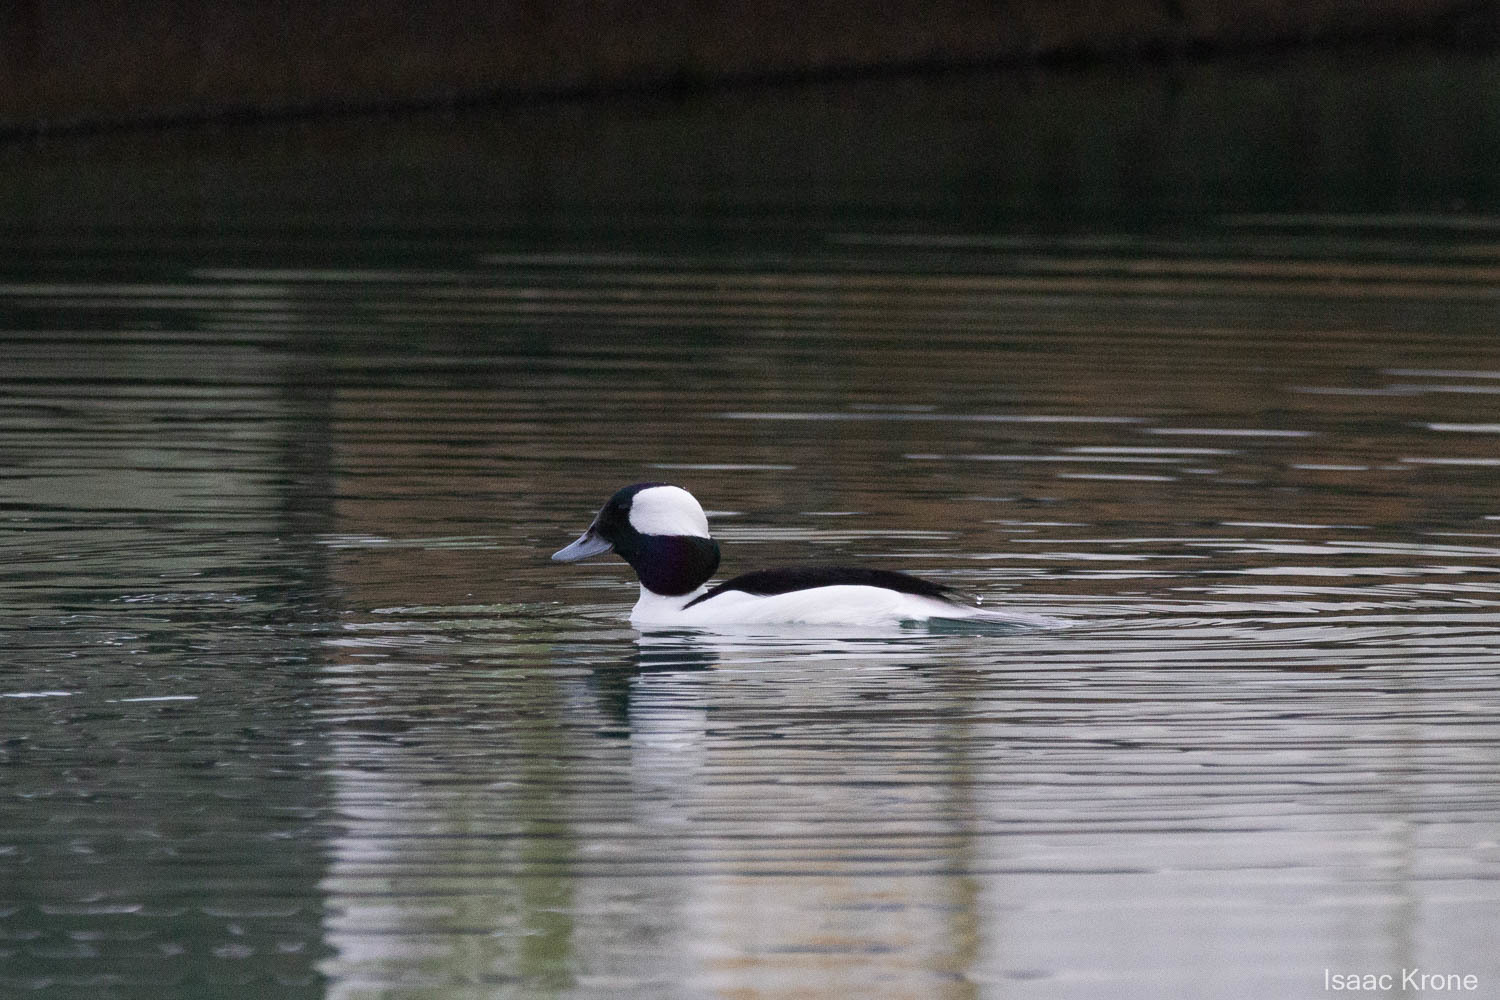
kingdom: Animalia
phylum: Chordata
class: Aves
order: Anseriformes
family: Anatidae
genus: Bucephala
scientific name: Bucephala albeola
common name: Bufflehead
